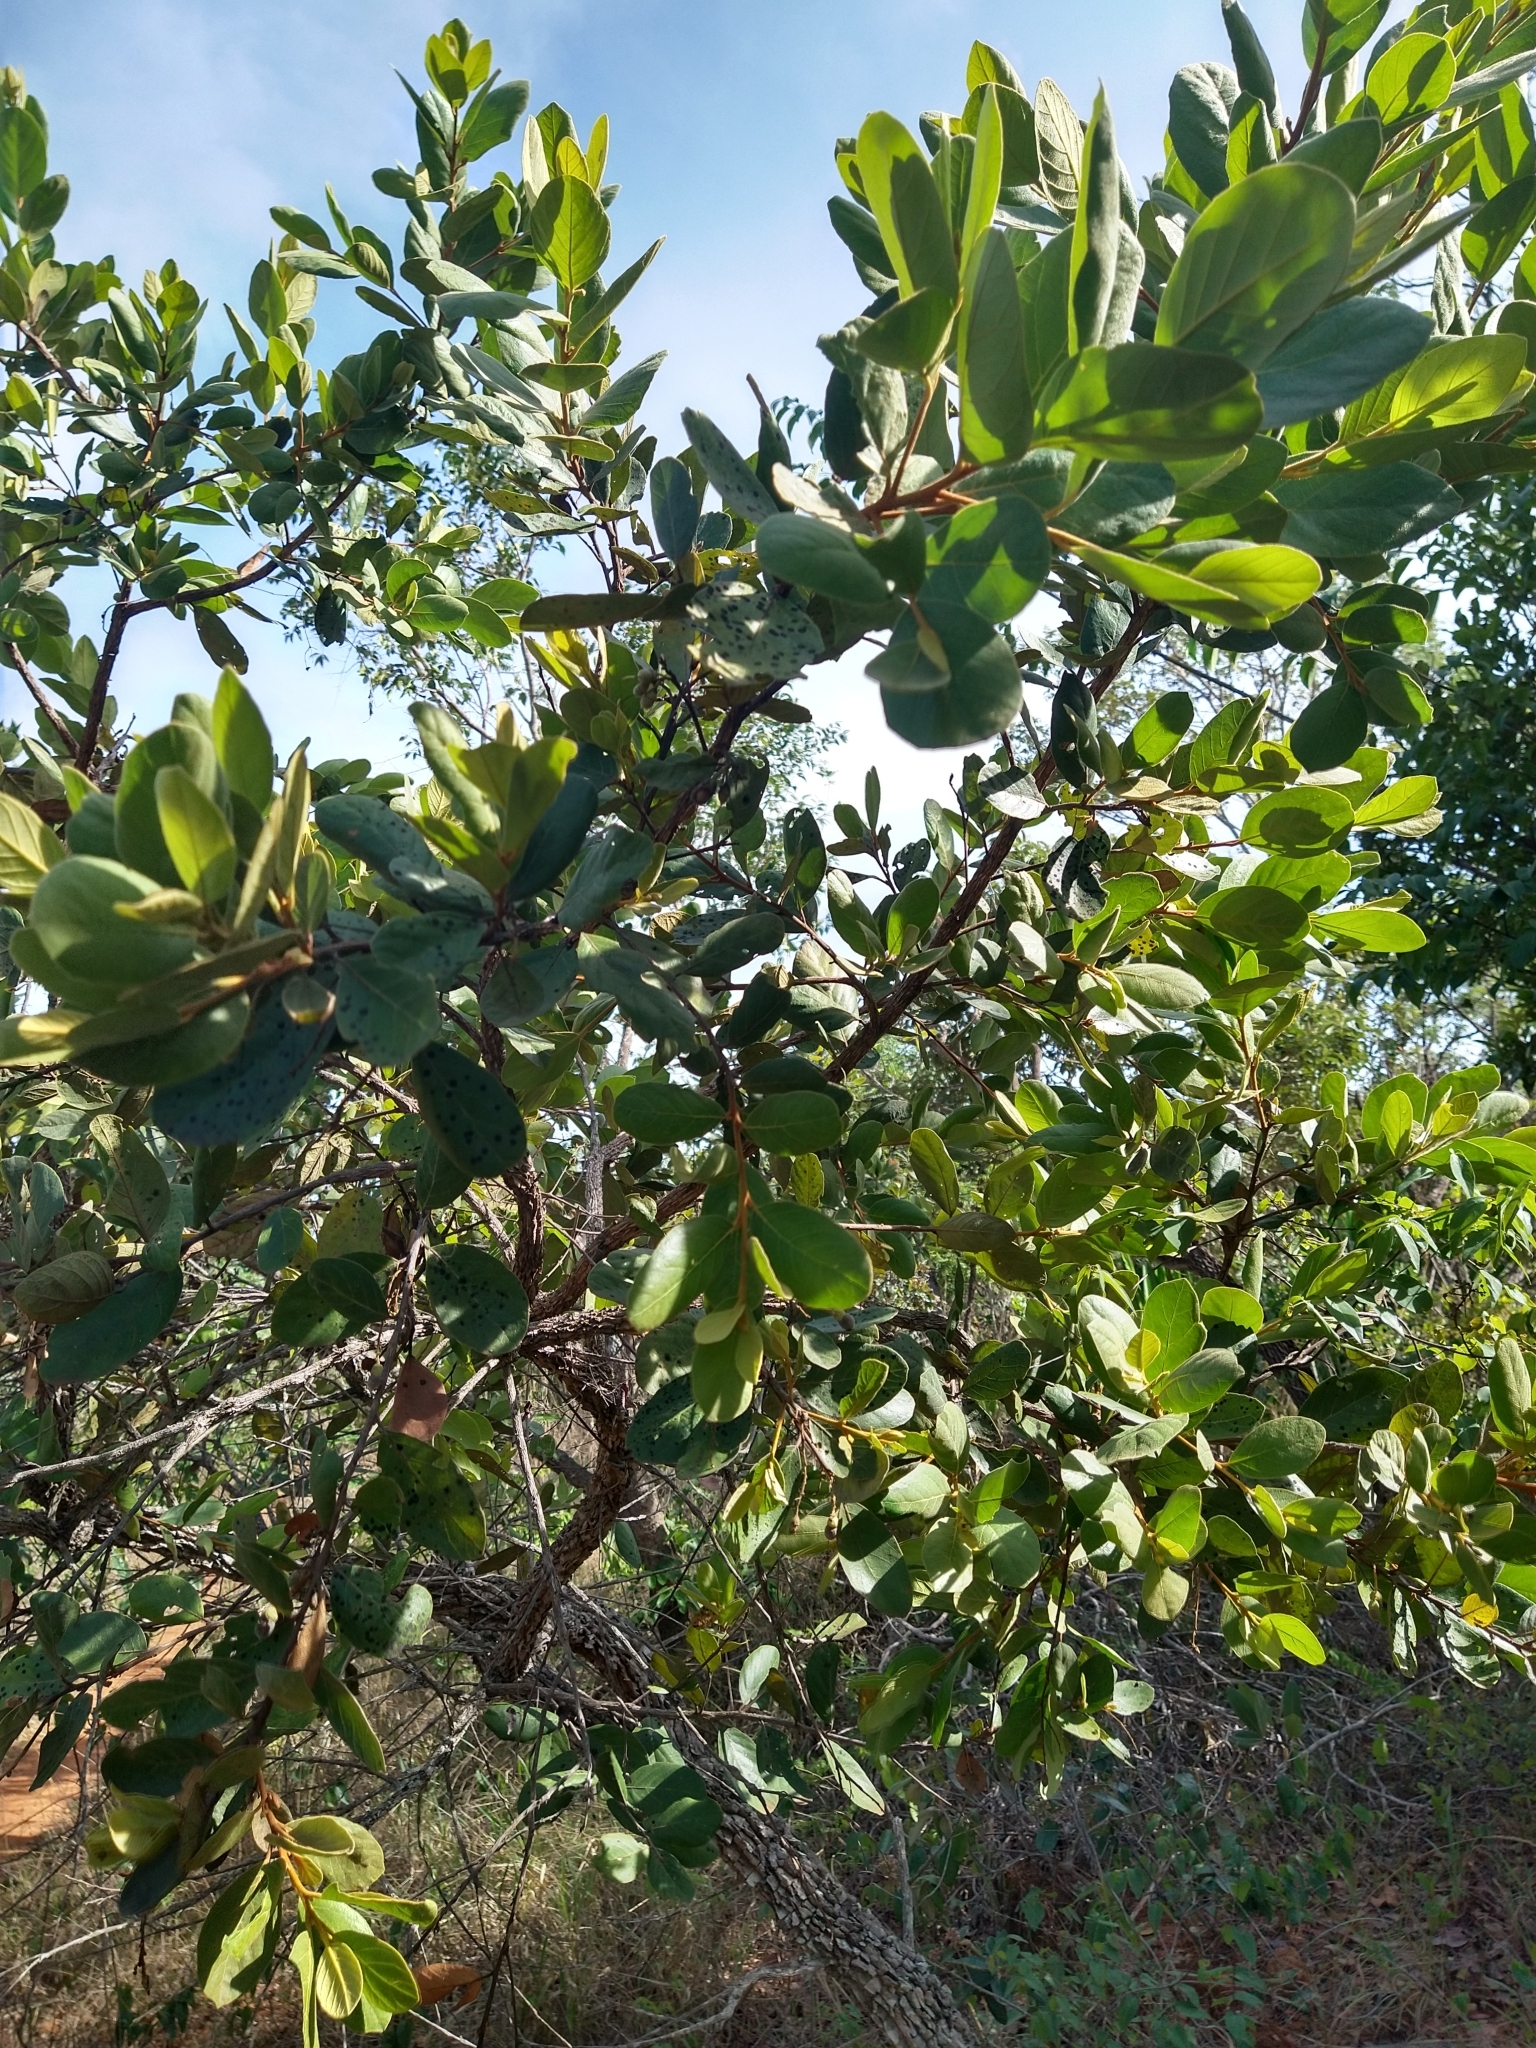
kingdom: Plantae
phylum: Tracheophyta
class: Magnoliopsida
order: Ericales
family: Styracaceae
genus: Styrax
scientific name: Styrax ferrugineus
